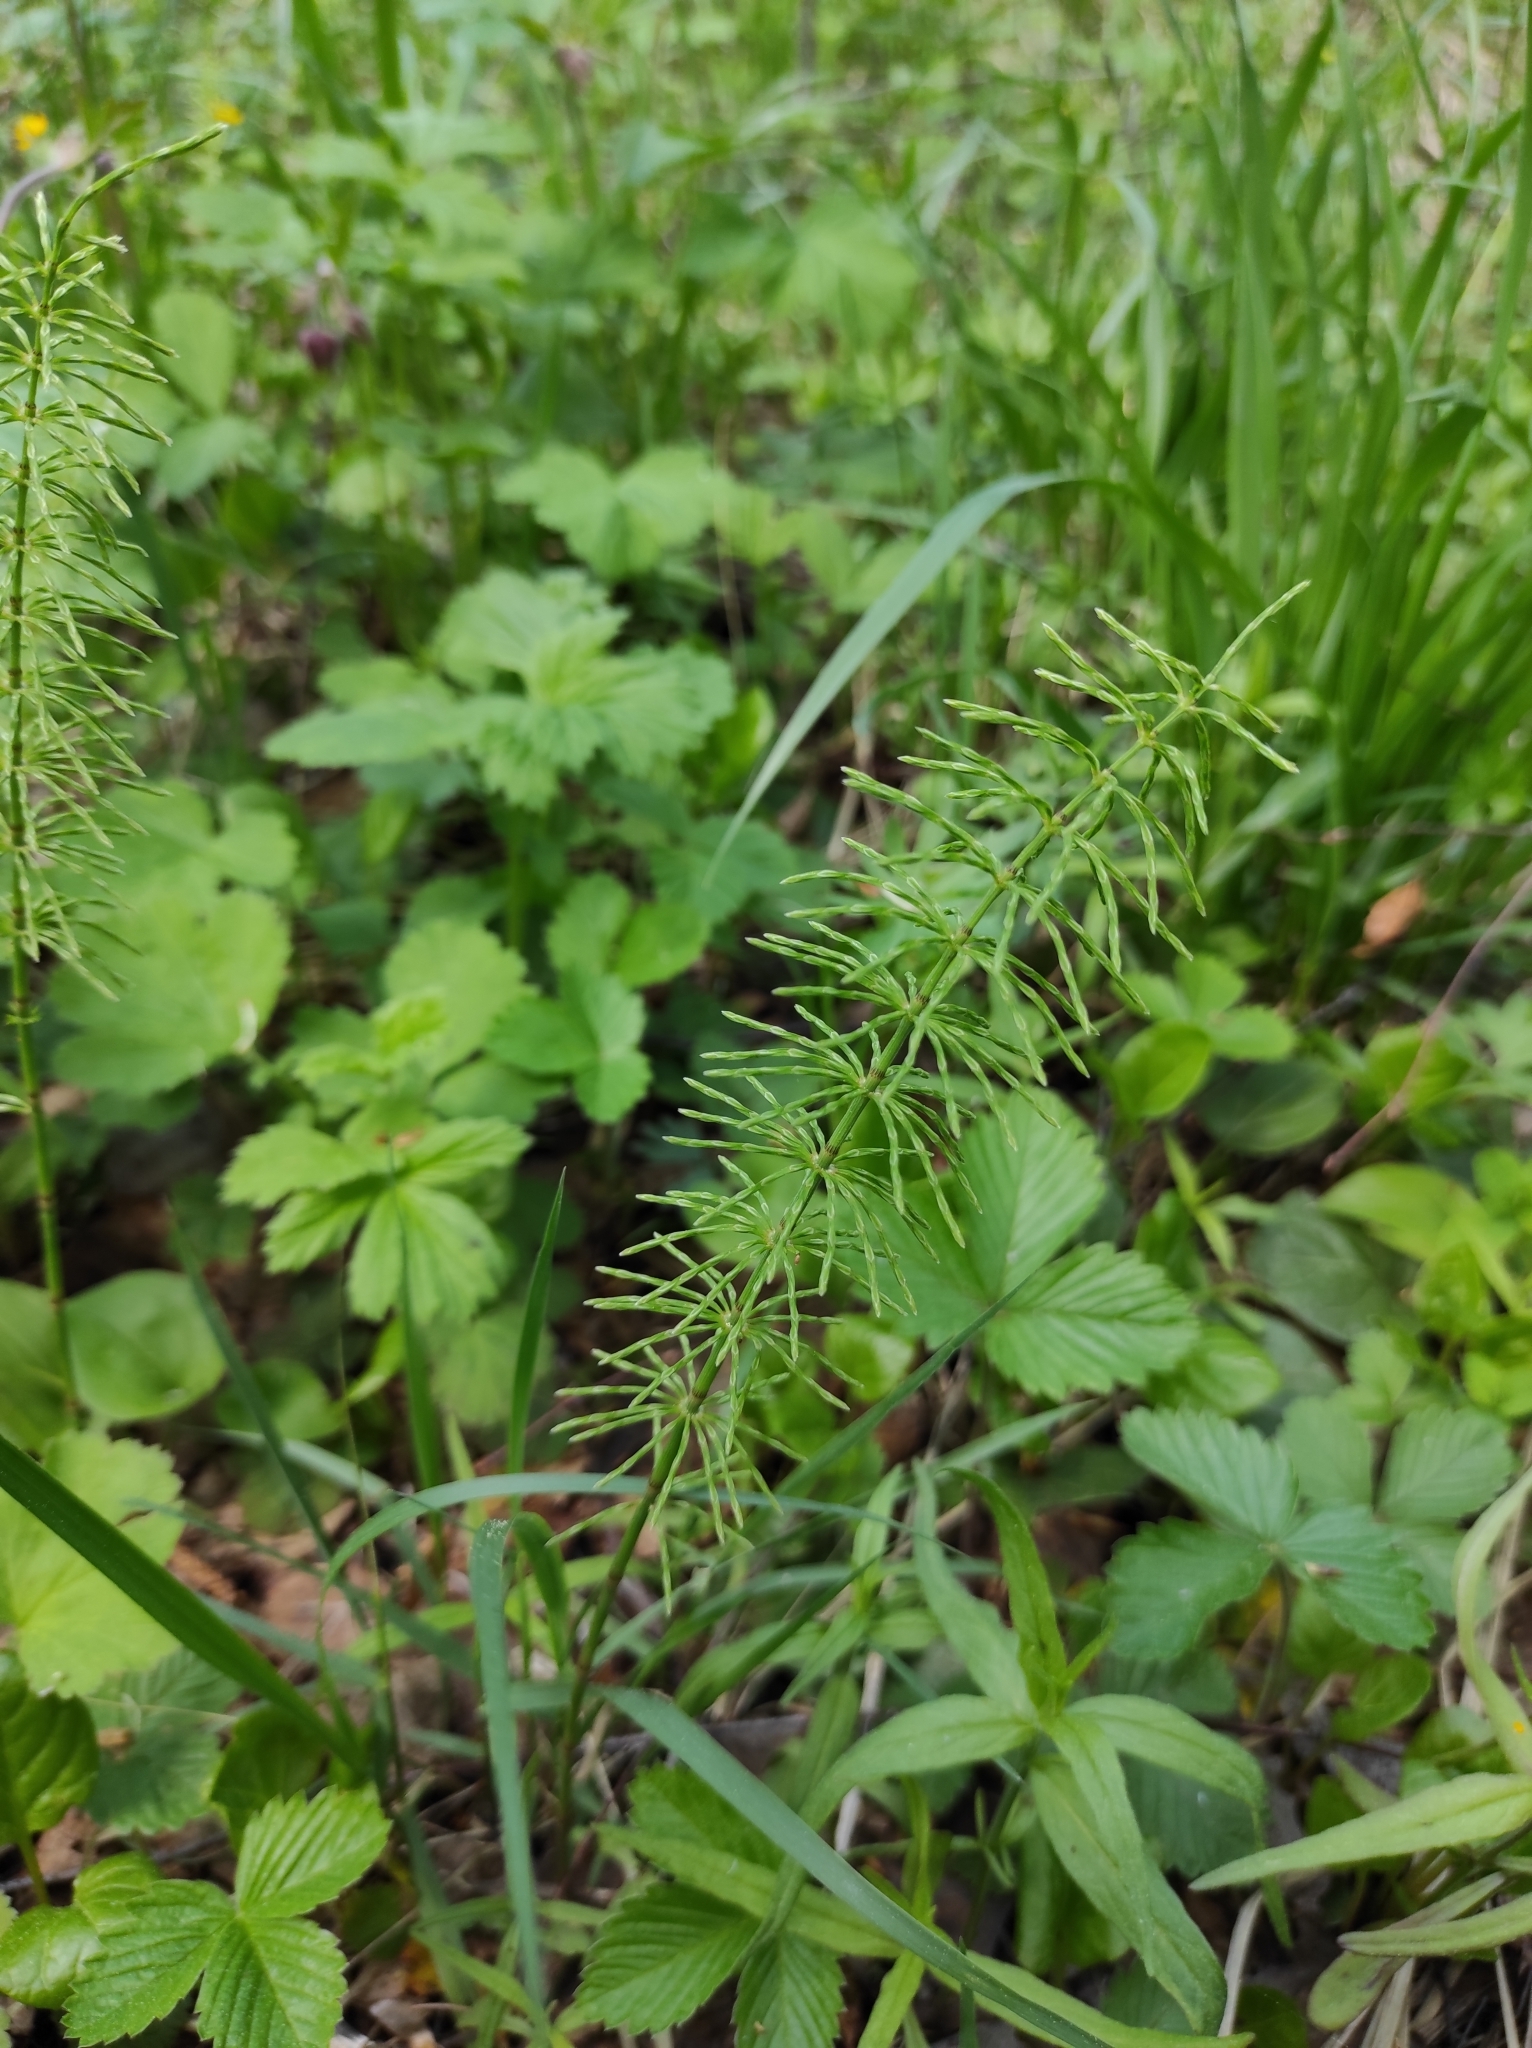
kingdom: Plantae
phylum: Tracheophyta
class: Polypodiopsida
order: Equisetales
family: Equisetaceae
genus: Equisetum
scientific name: Equisetum pratense
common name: Meadow horsetail
